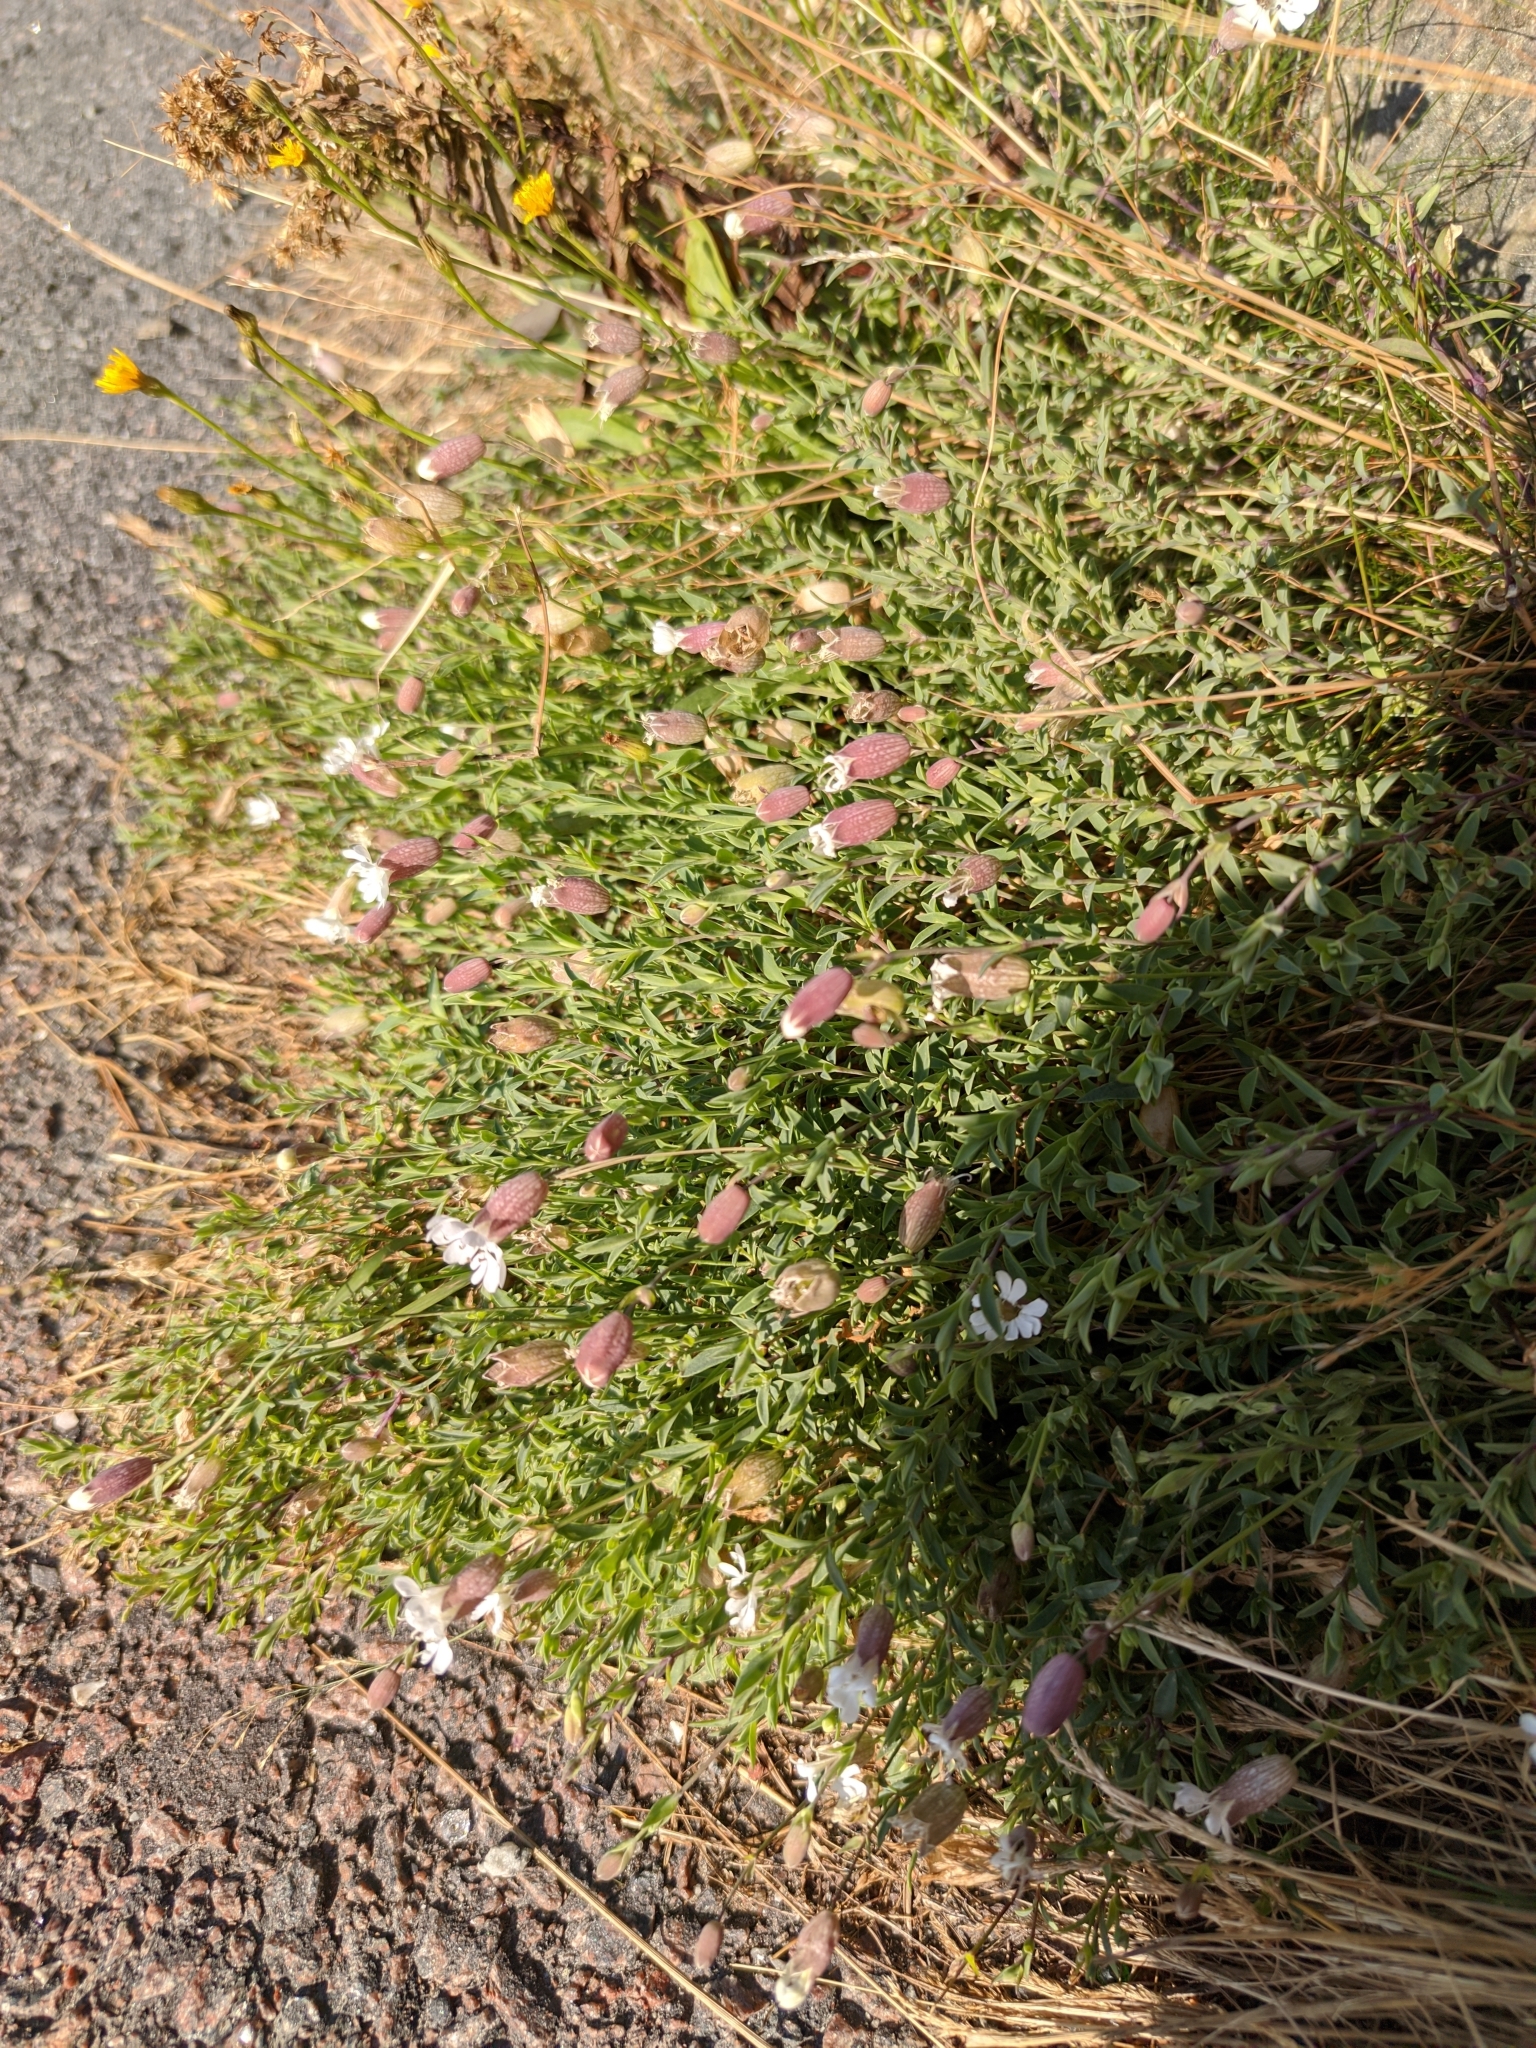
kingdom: Plantae
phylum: Tracheophyta
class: Magnoliopsida
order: Caryophyllales
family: Caryophyllaceae
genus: Silene
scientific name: Silene uniflora
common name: Sea campion
